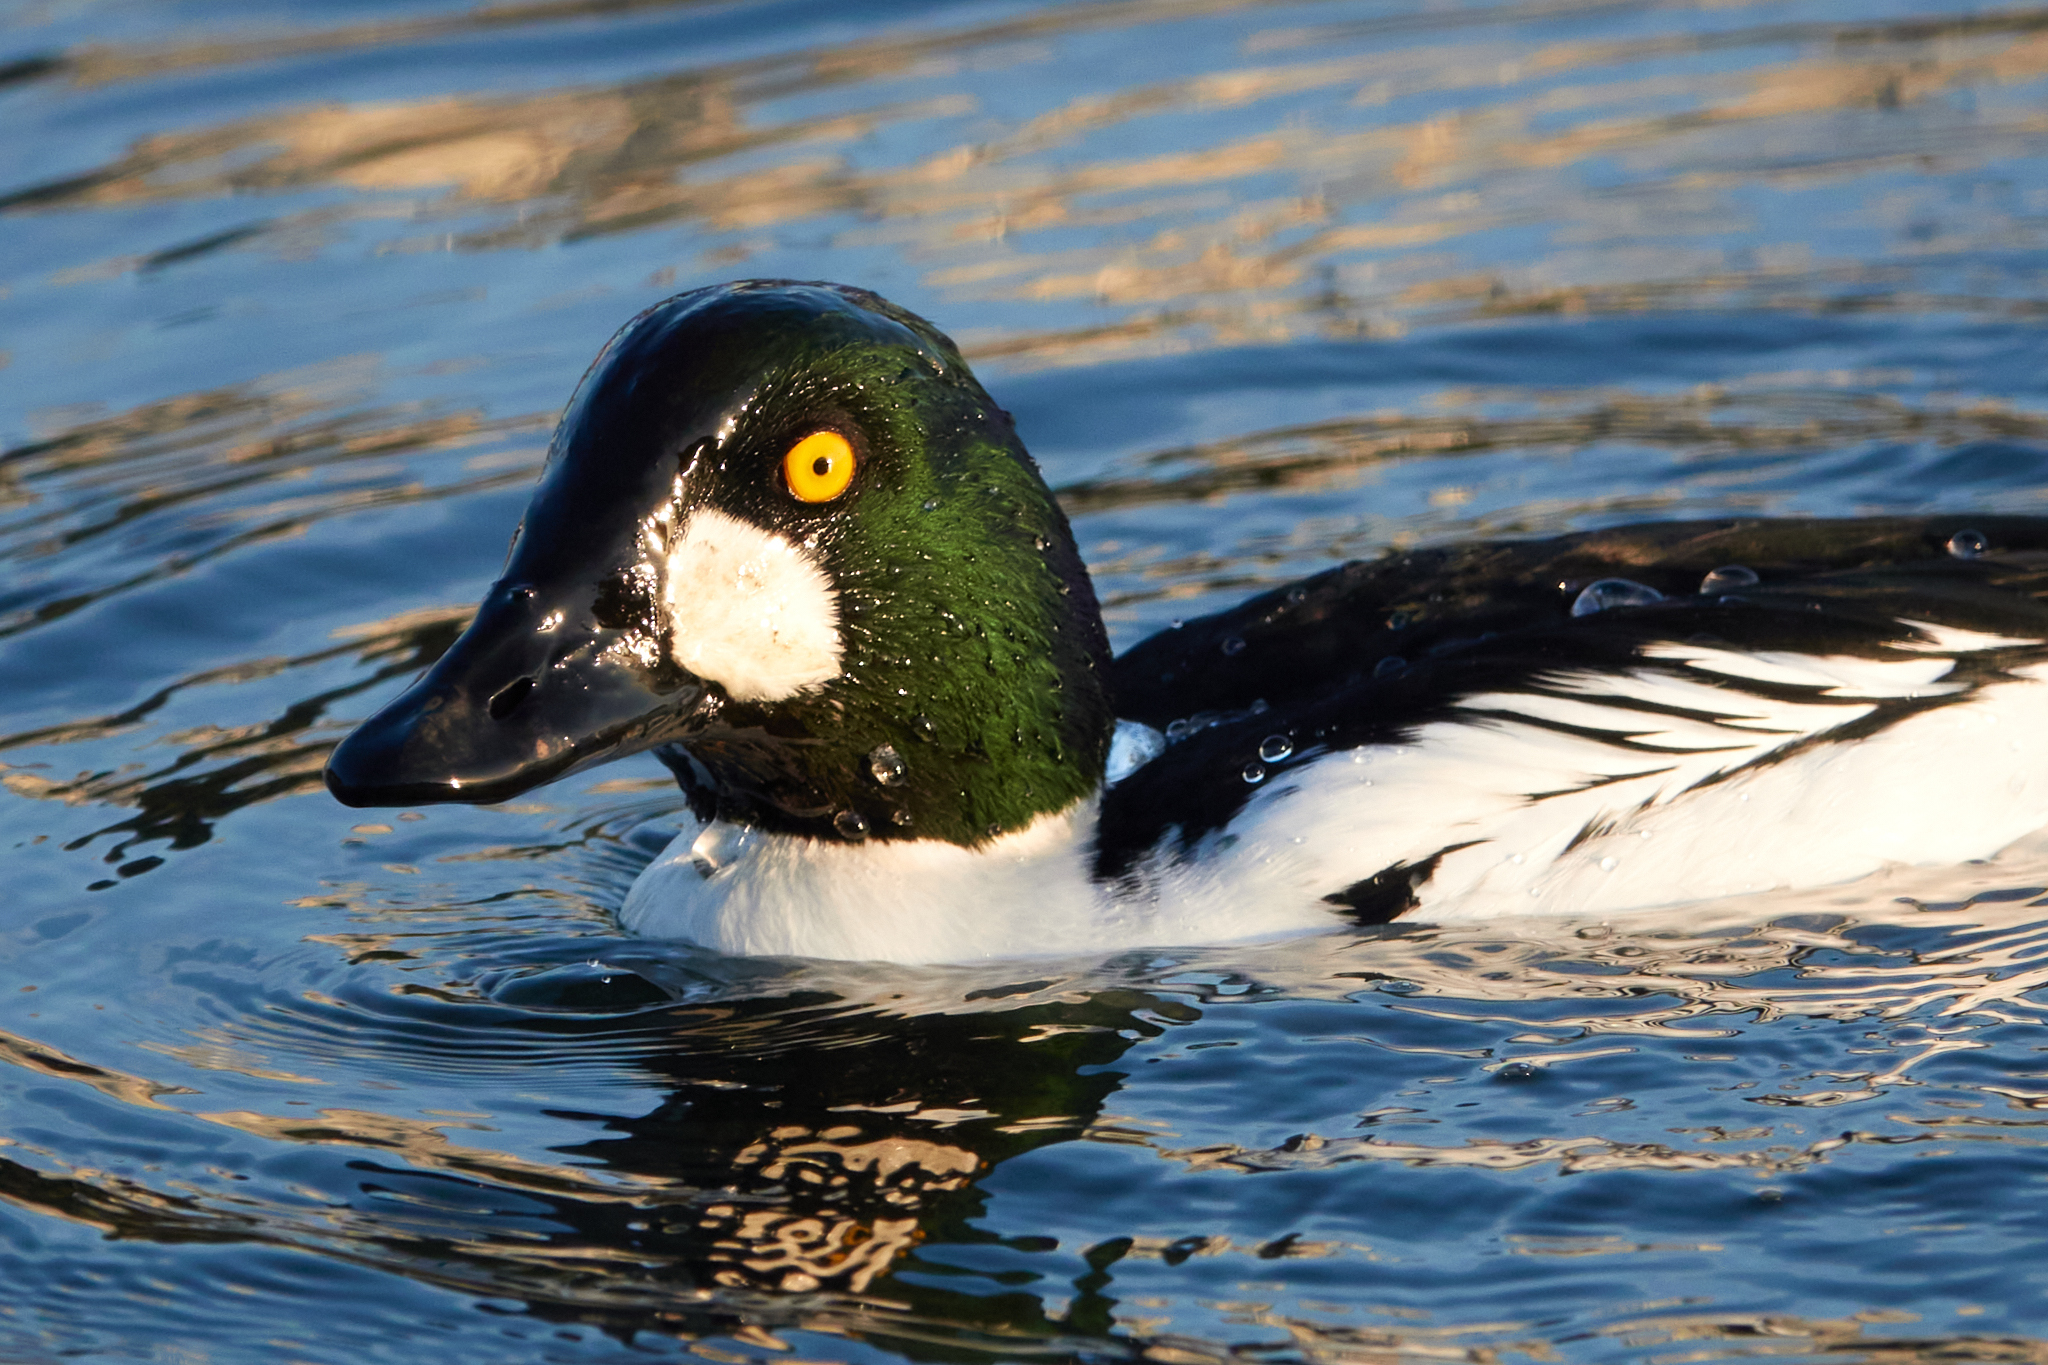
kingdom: Animalia
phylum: Chordata
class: Aves
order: Anseriformes
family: Anatidae
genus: Bucephala
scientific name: Bucephala clangula
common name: Common goldeneye
